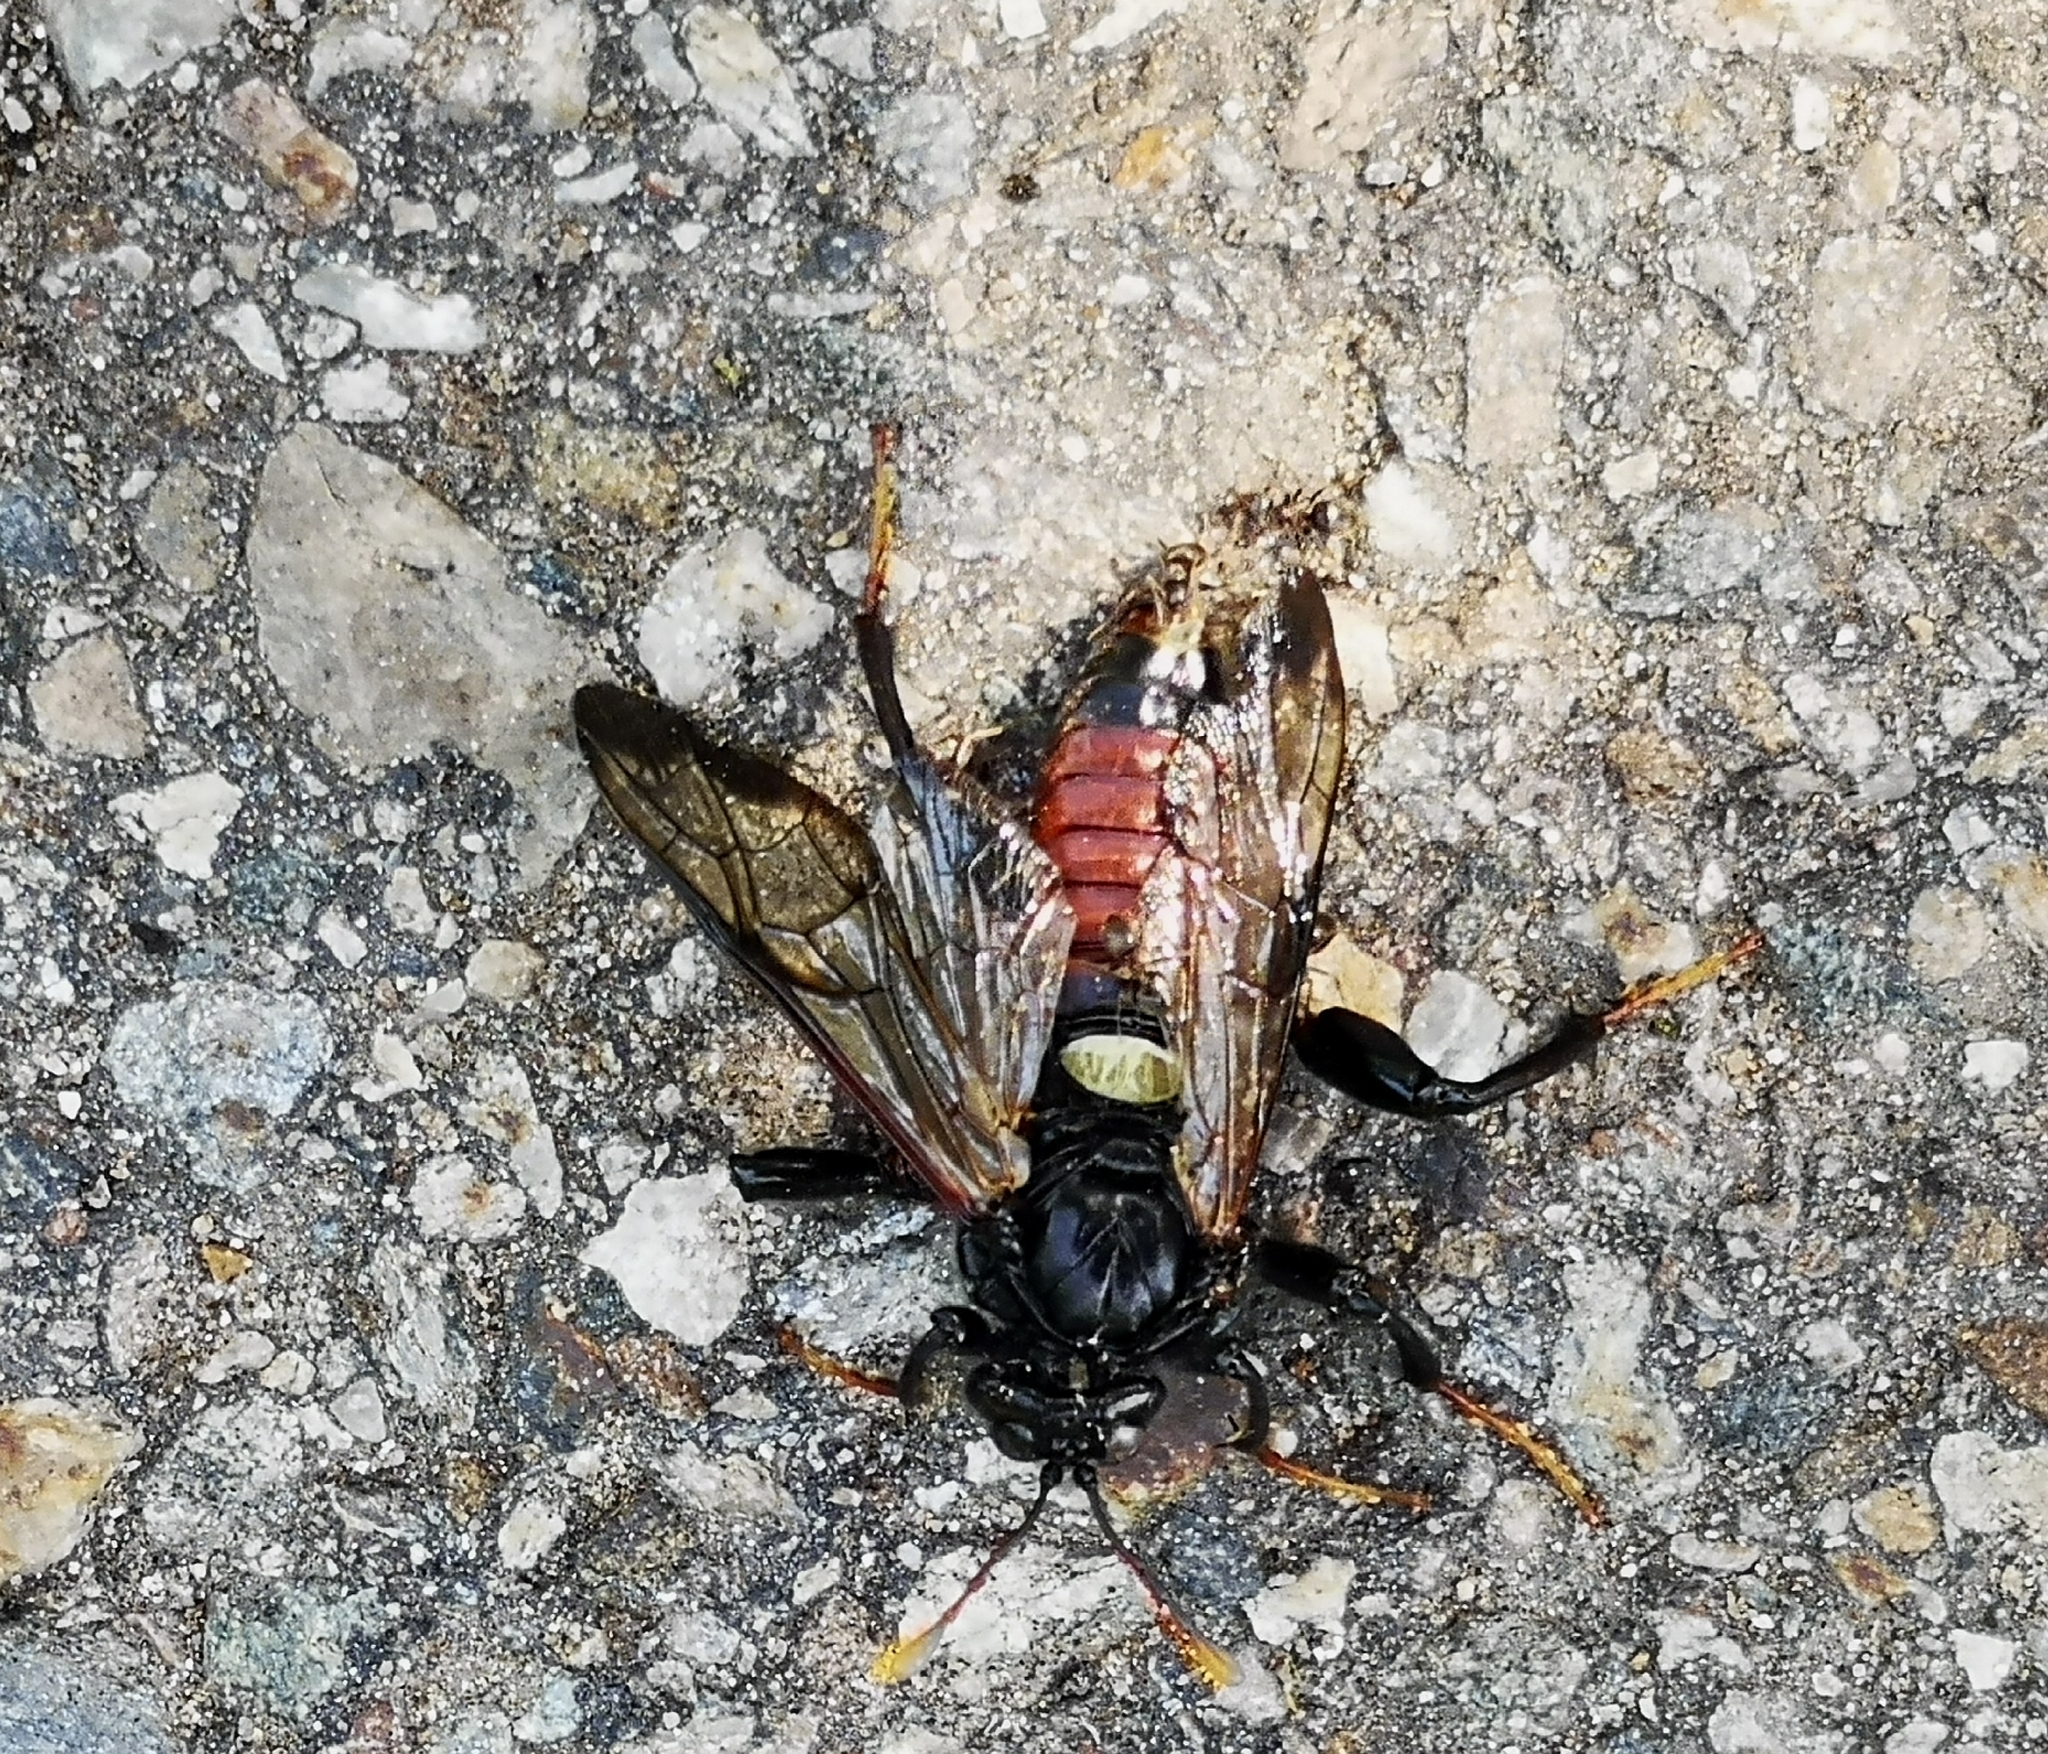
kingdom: Animalia
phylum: Arthropoda
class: Insecta
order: Hymenoptera
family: Cimbicidae
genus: Cimbex
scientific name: Cimbex femoratus
